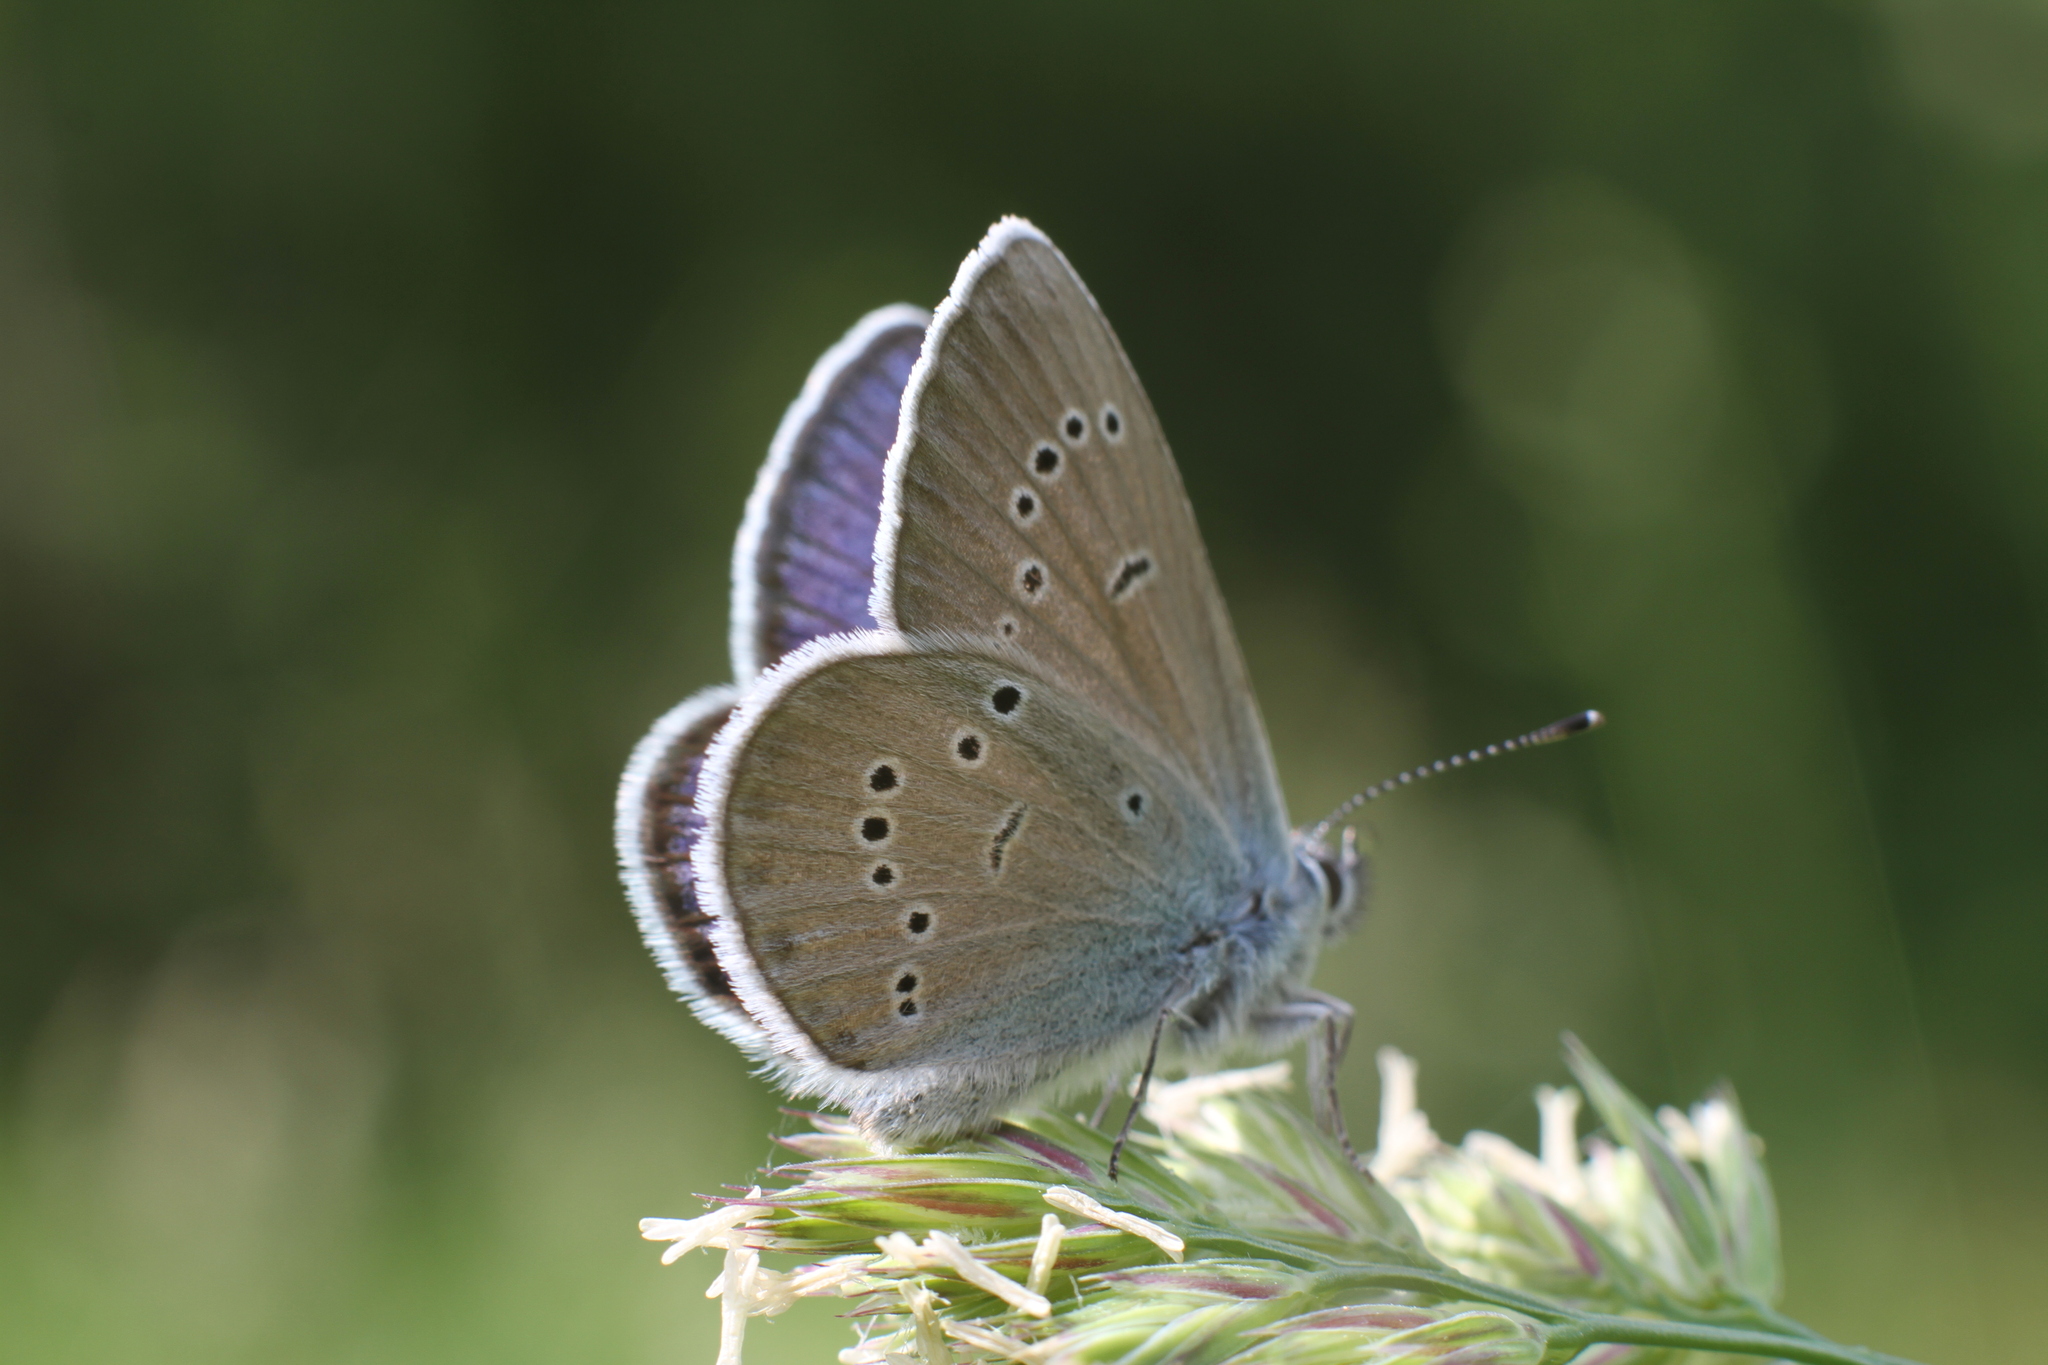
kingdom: Animalia
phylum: Arthropoda
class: Insecta
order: Lepidoptera
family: Lycaenidae
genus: Cyaniris
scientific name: Cyaniris semiargus
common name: Mazarine blue
